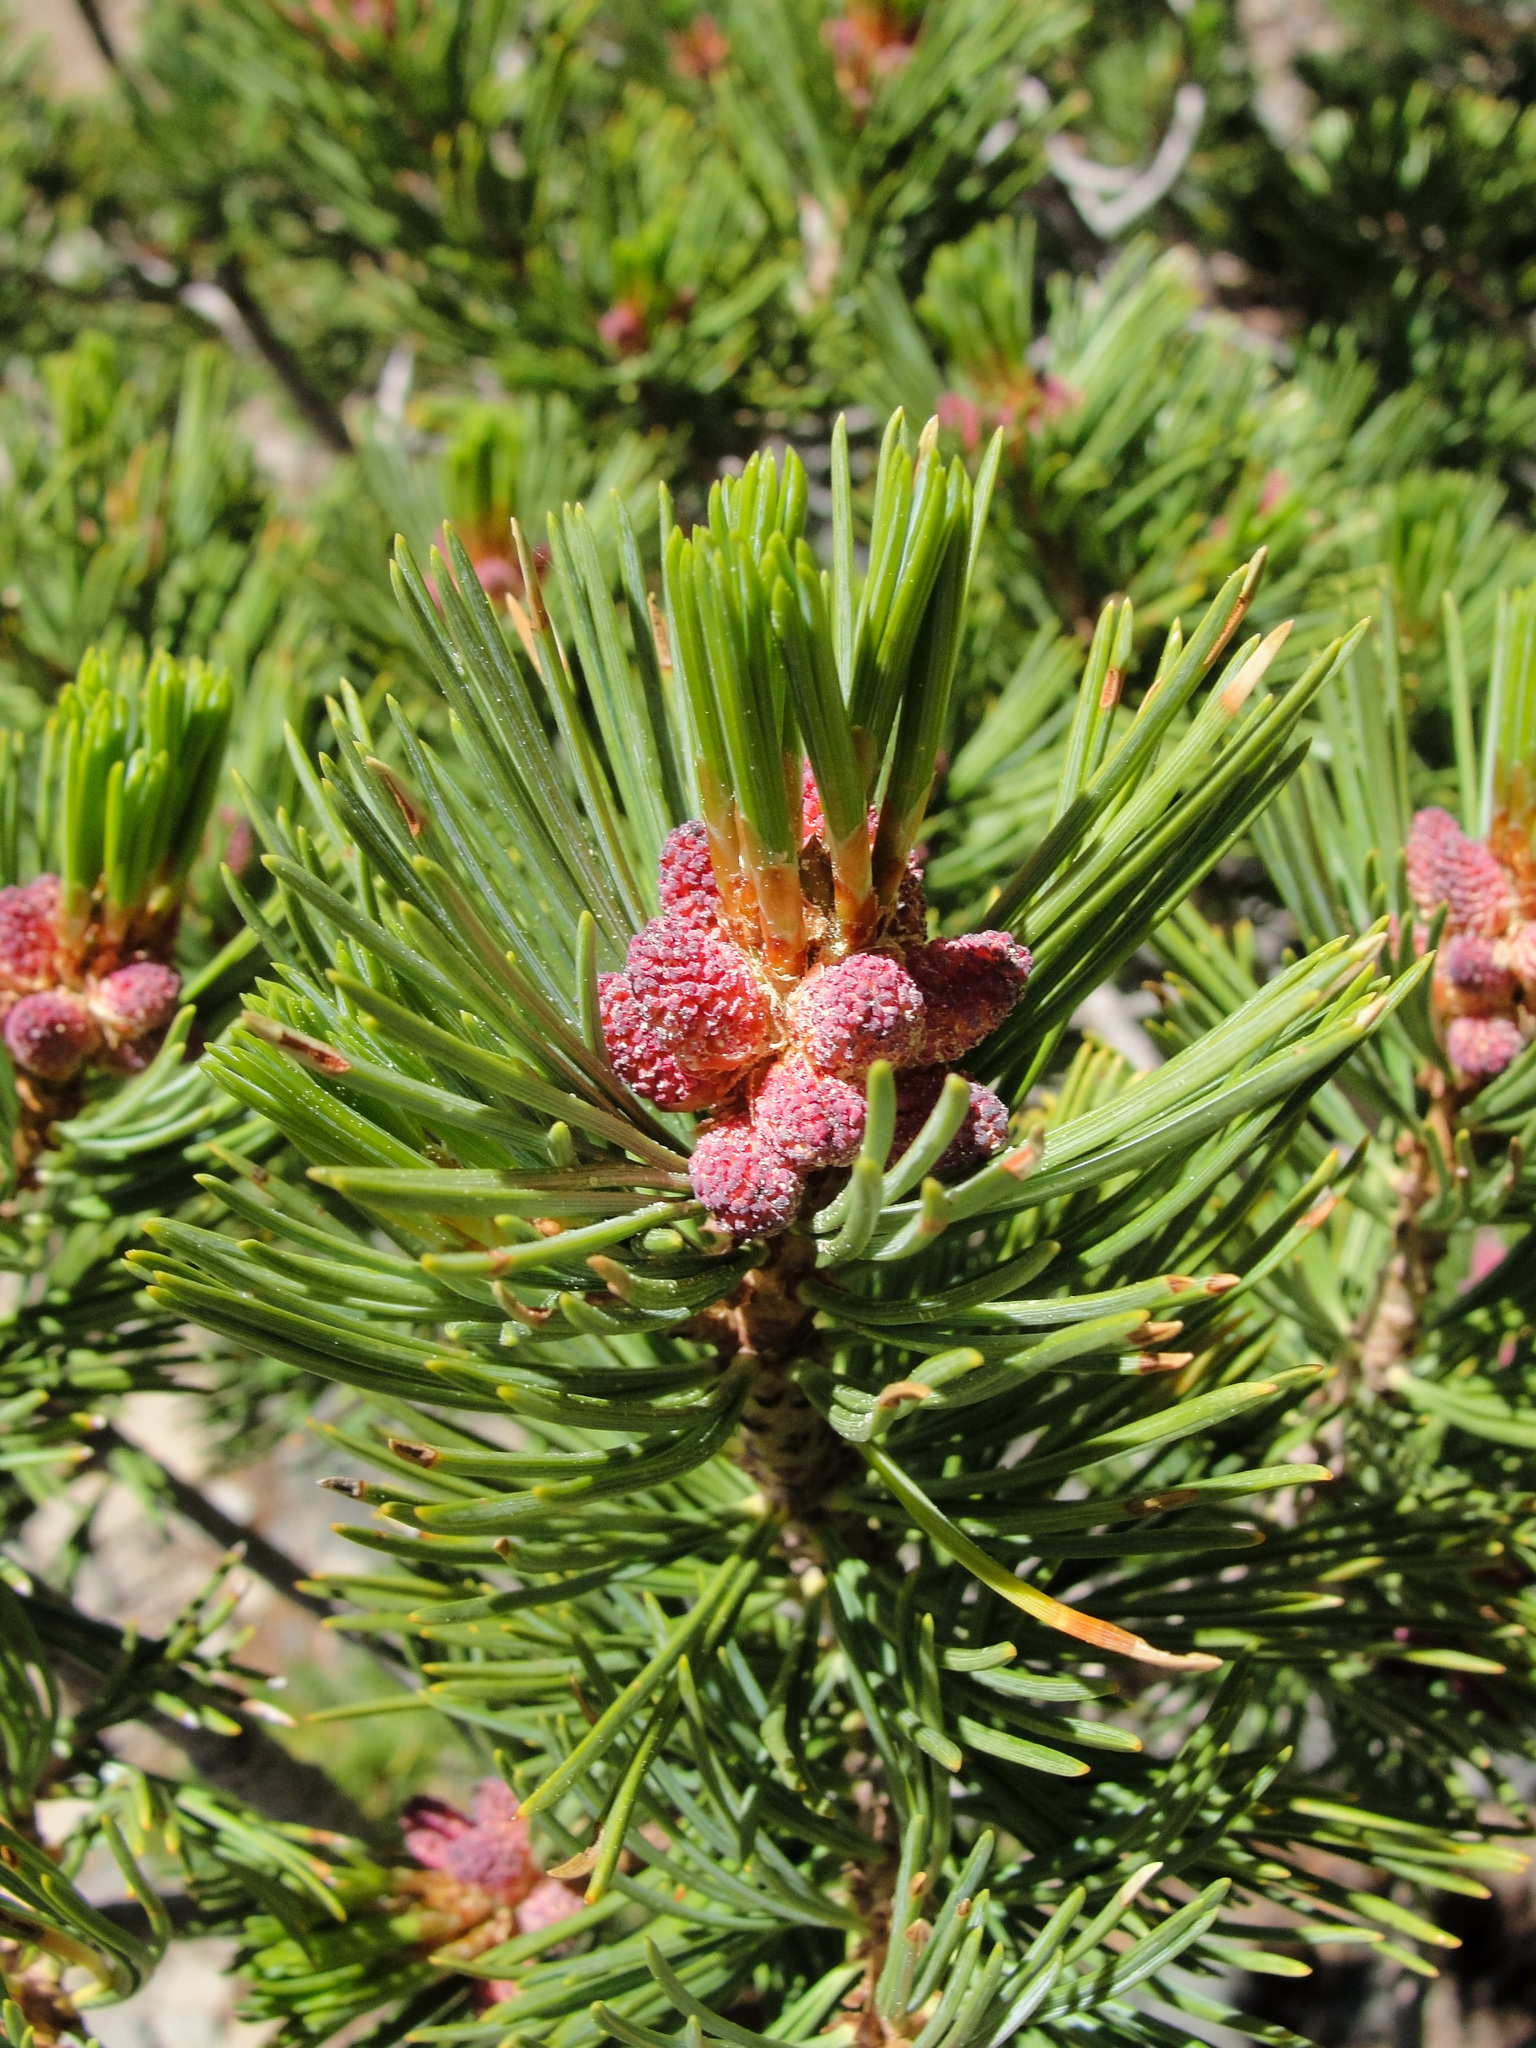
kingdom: Plantae
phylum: Tracheophyta
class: Pinopsida
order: Pinales
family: Pinaceae
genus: Pinus
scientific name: Pinus albicaulis
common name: Whitebark pine
